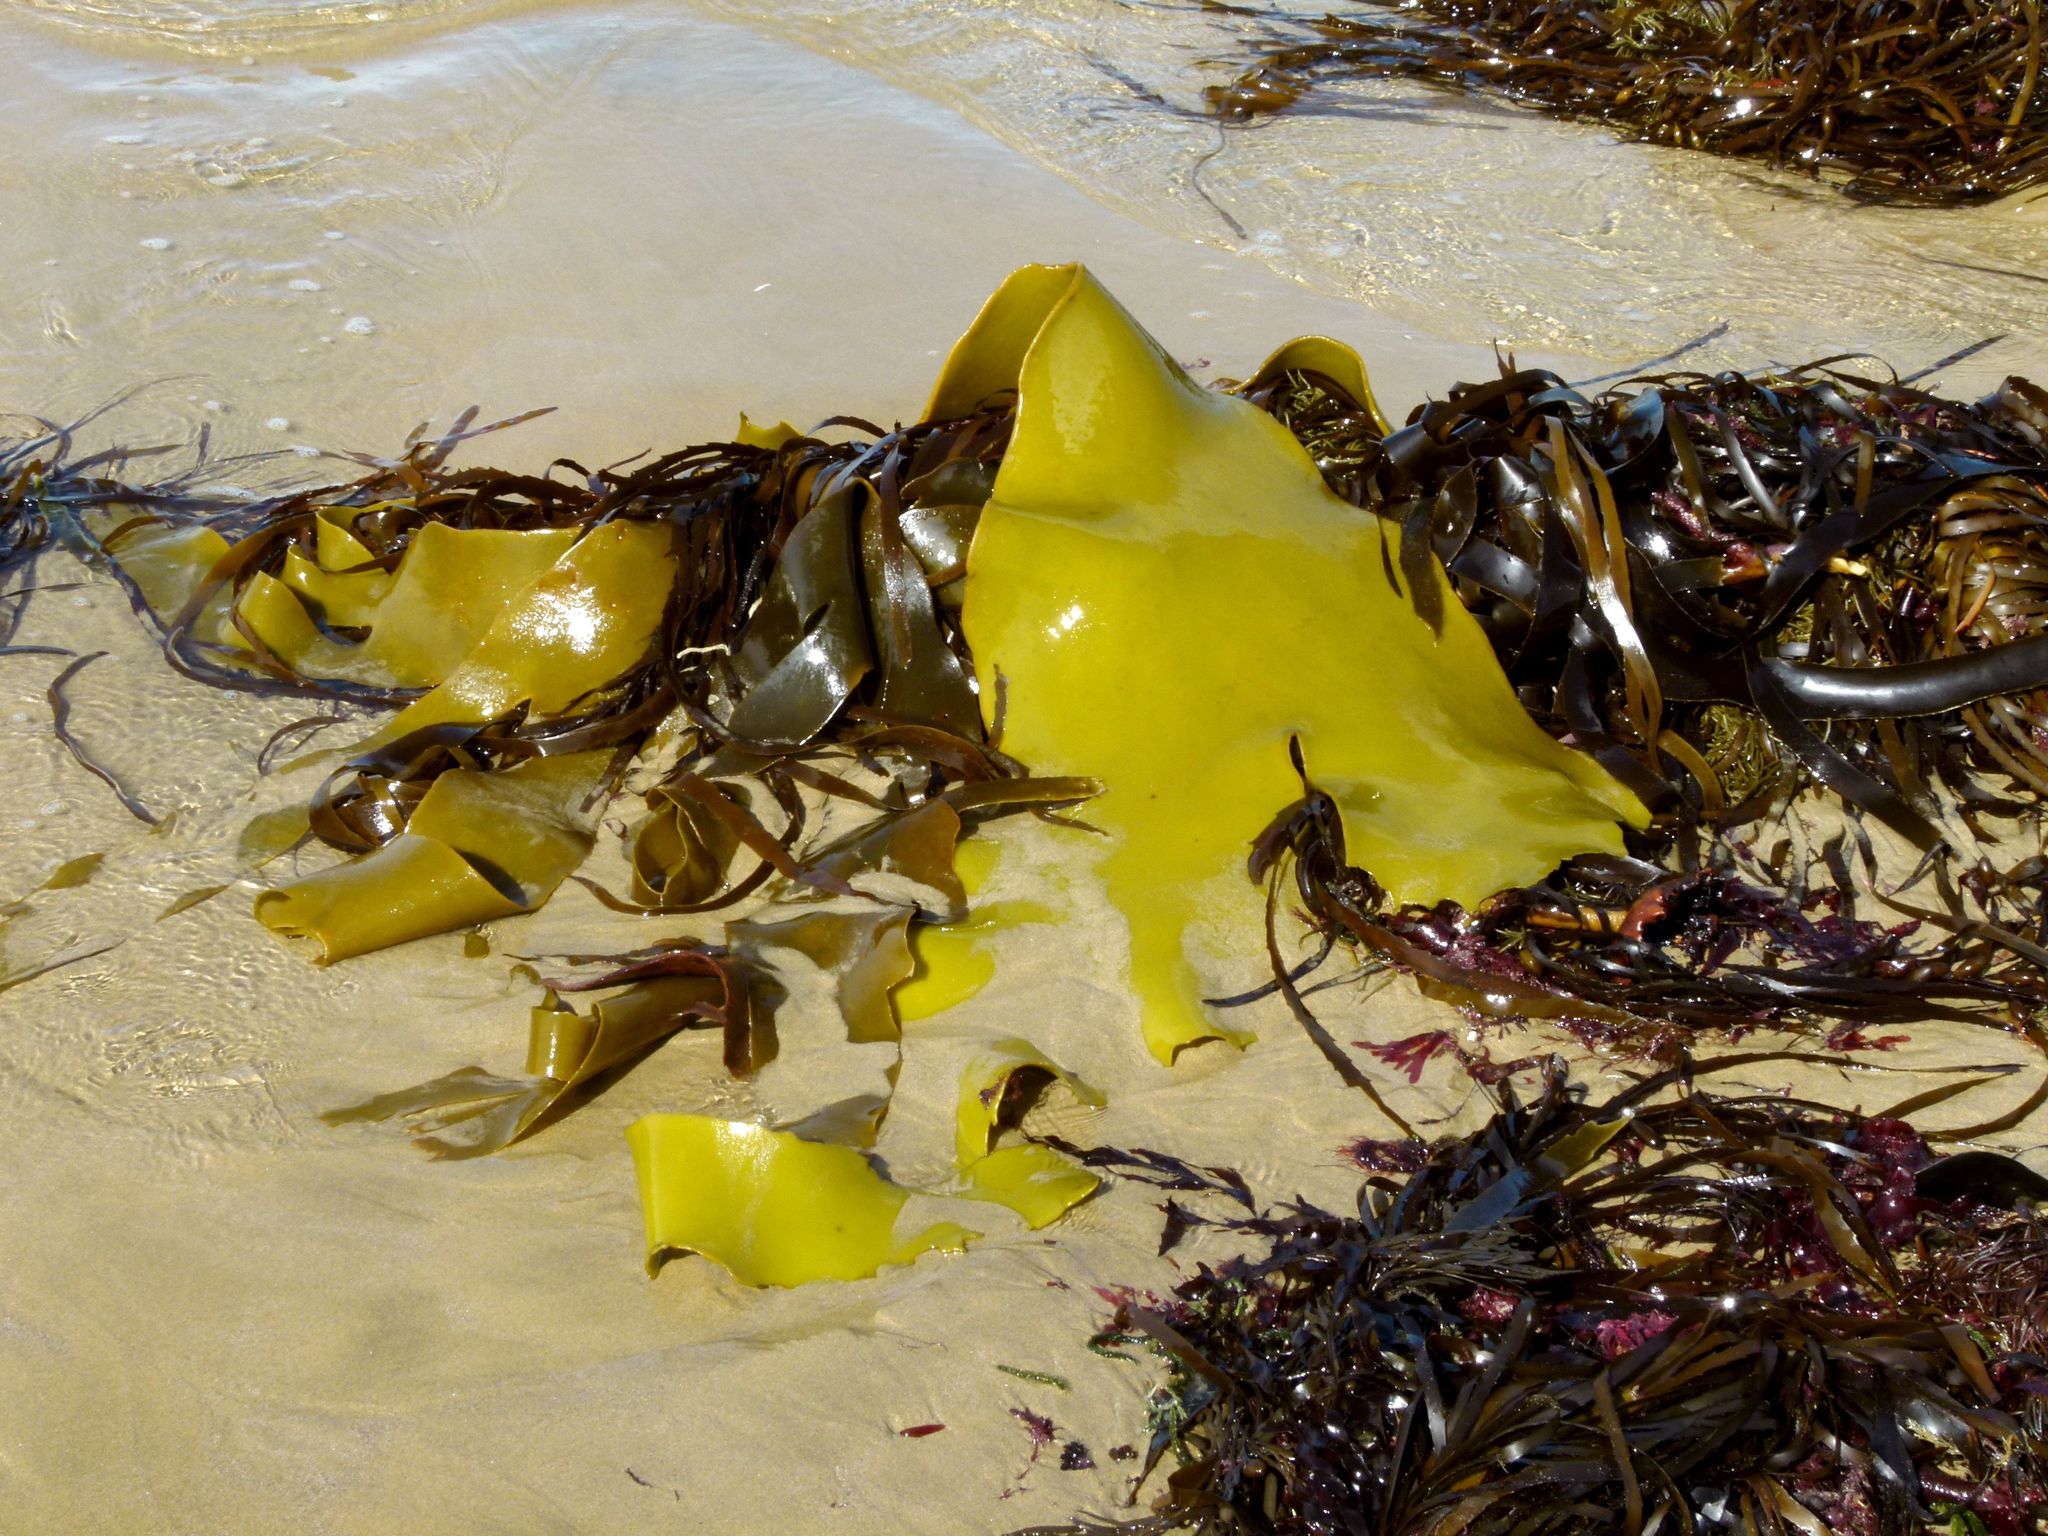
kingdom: Chromista
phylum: Ochrophyta
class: Phaeophyceae
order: Fucales
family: Durvillaeaceae
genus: Durvillaea
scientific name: Durvillaea poha
